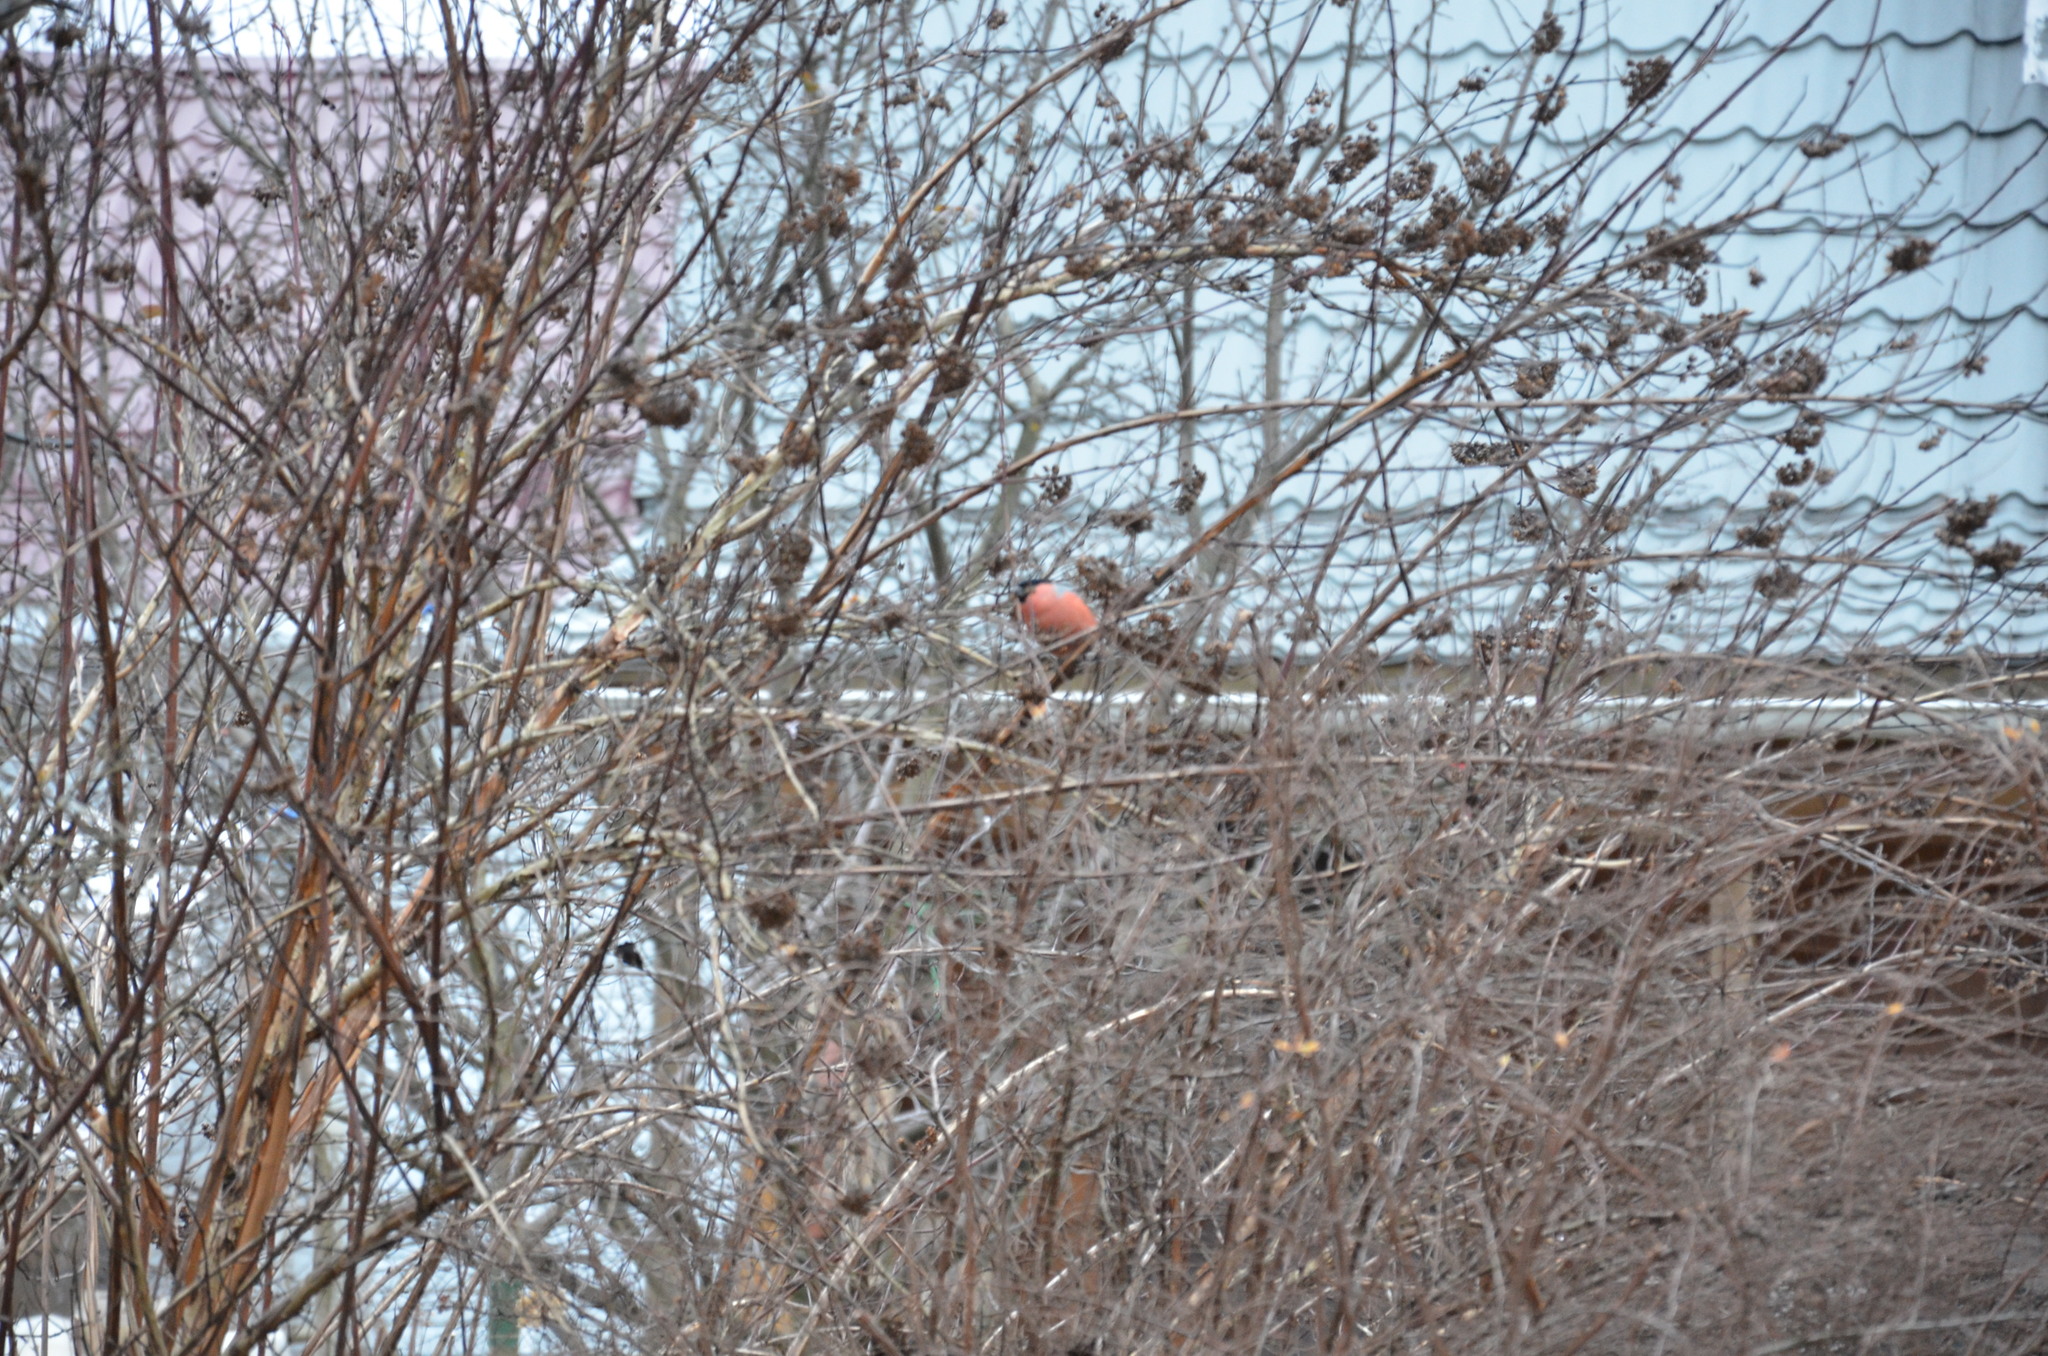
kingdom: Animalia
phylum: Chordata
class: Aves
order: Passeriformes
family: Fringillidae
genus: Pyrrhula
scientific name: Pyrrhula pyrrhula
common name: Eurasian bullfinch
